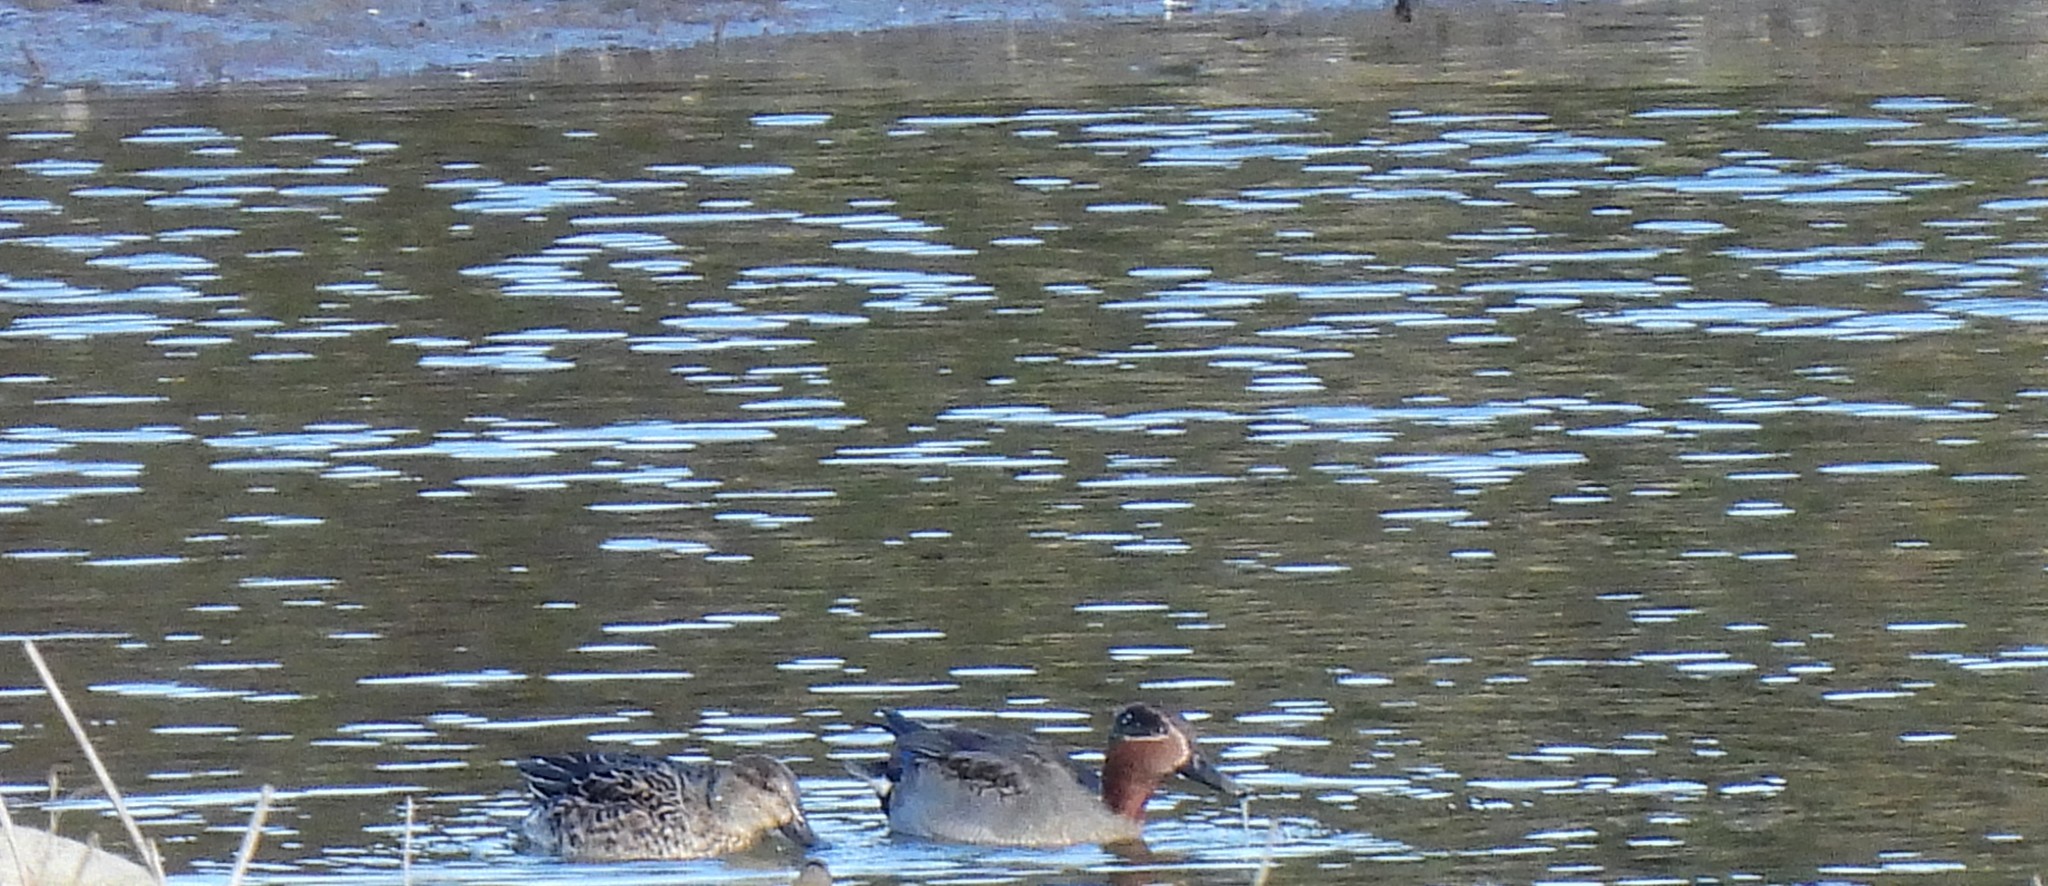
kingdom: Animalia
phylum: Chordata
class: Aves
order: Anseriformes
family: Anatidae
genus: Anas
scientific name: Anas crecca
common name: Eurasian teal
